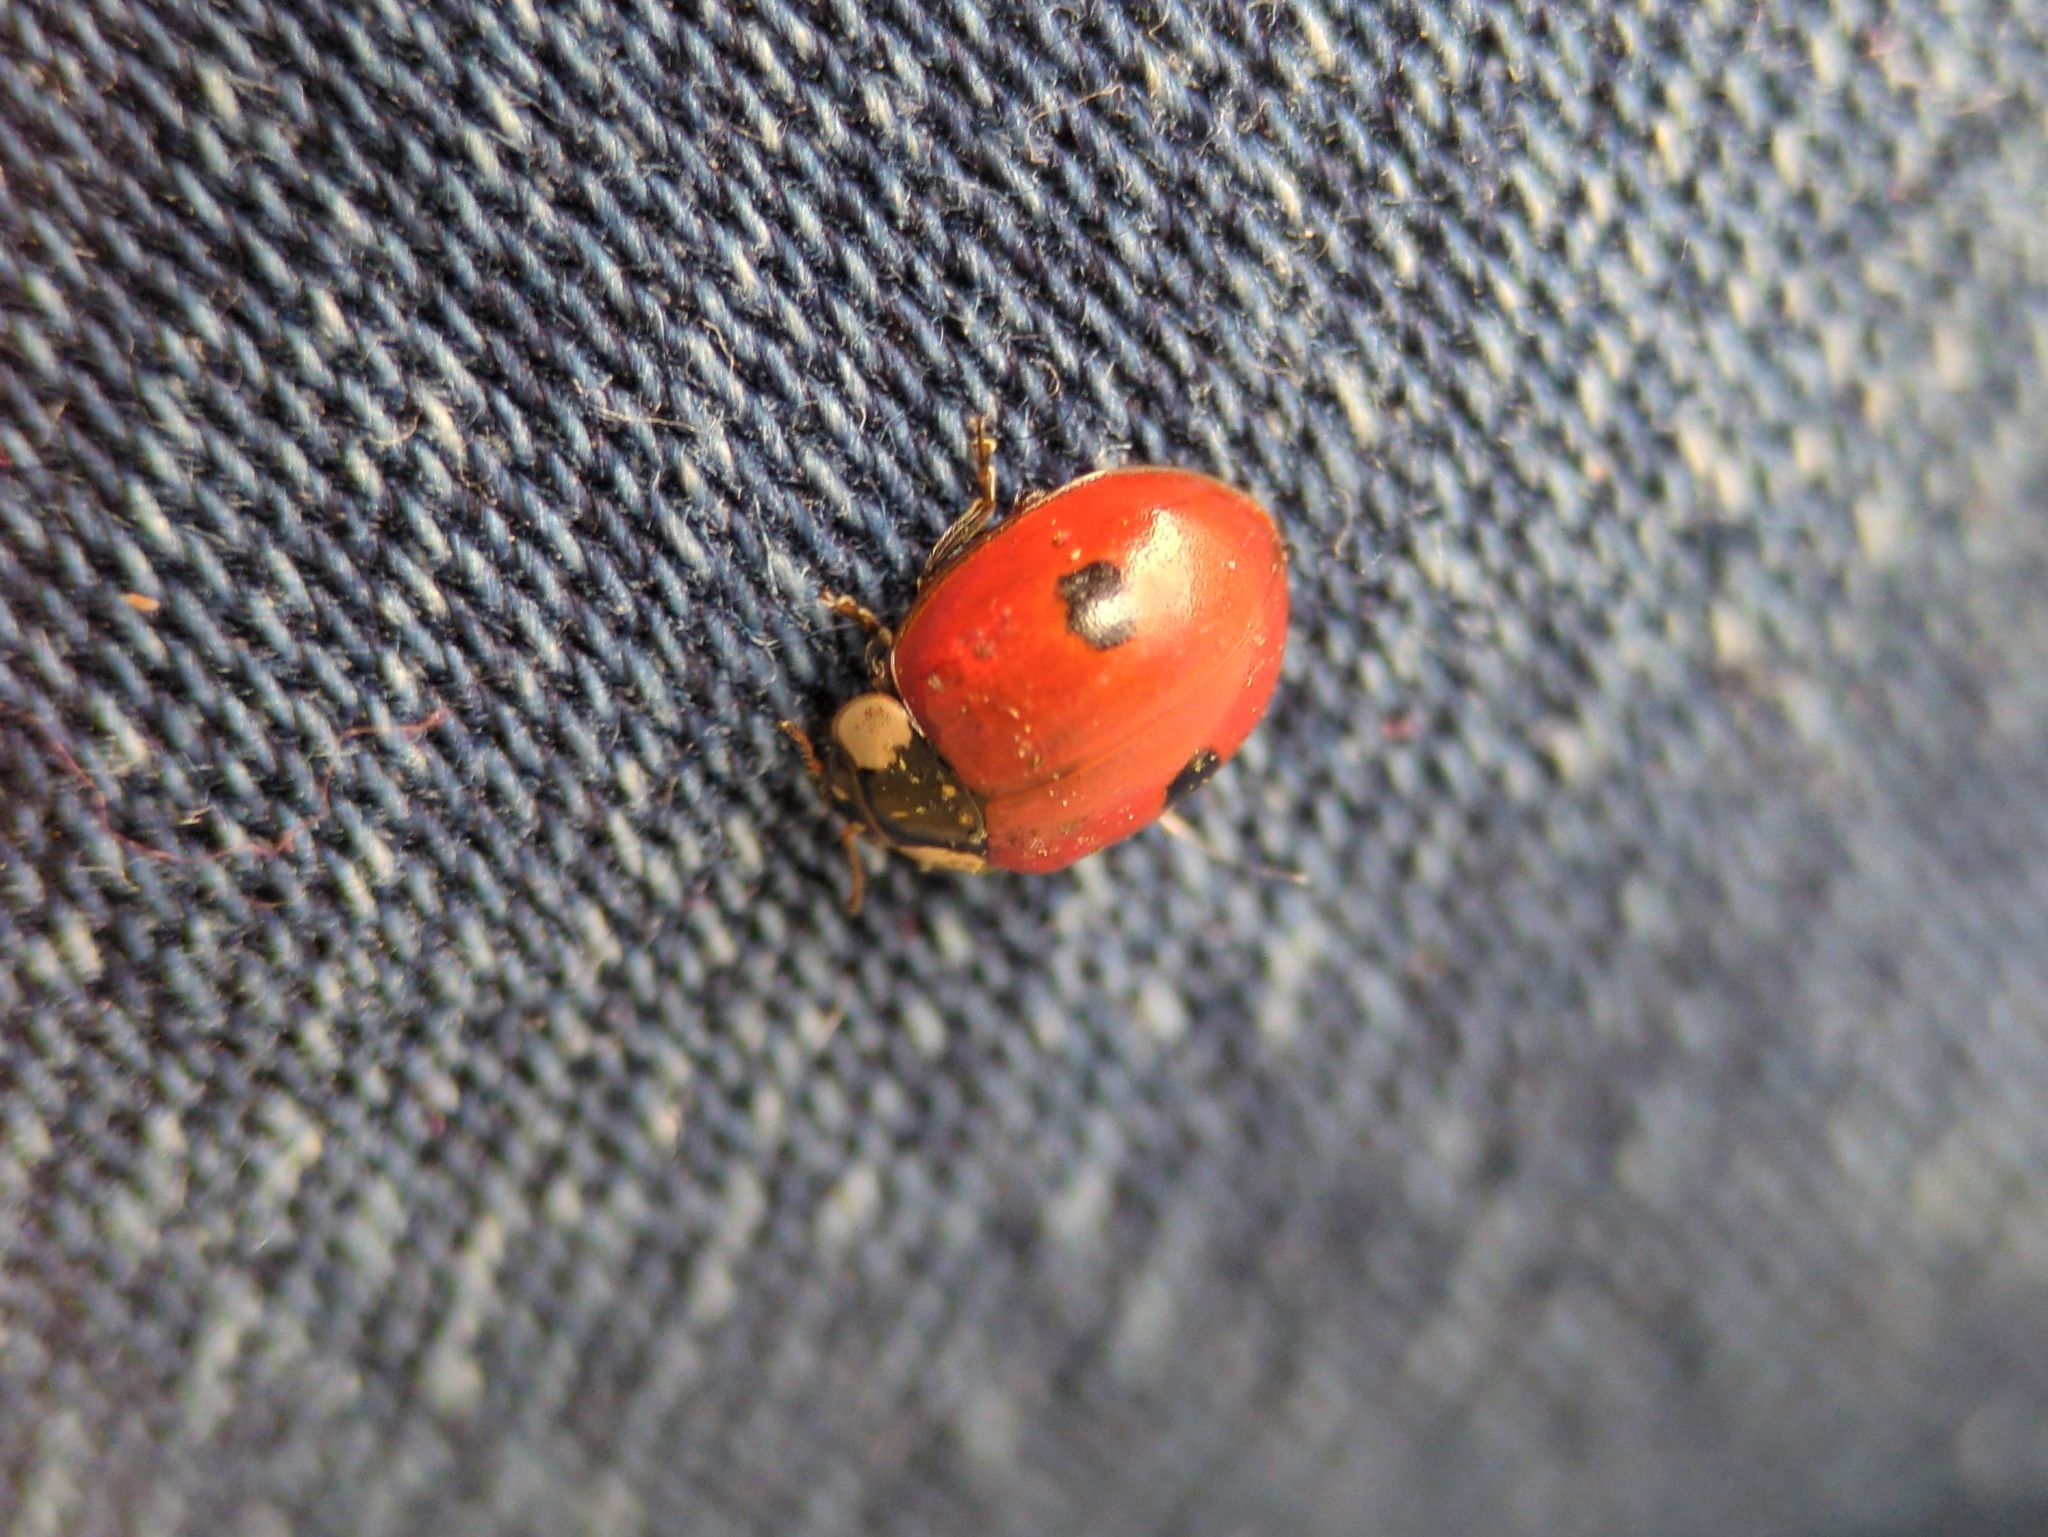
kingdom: Animalia
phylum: Arthropoda
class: Insecta
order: Coleoptera
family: Coccinellidae
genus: Adalia
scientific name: Adalia bipunctata
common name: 2-spot ladybird
